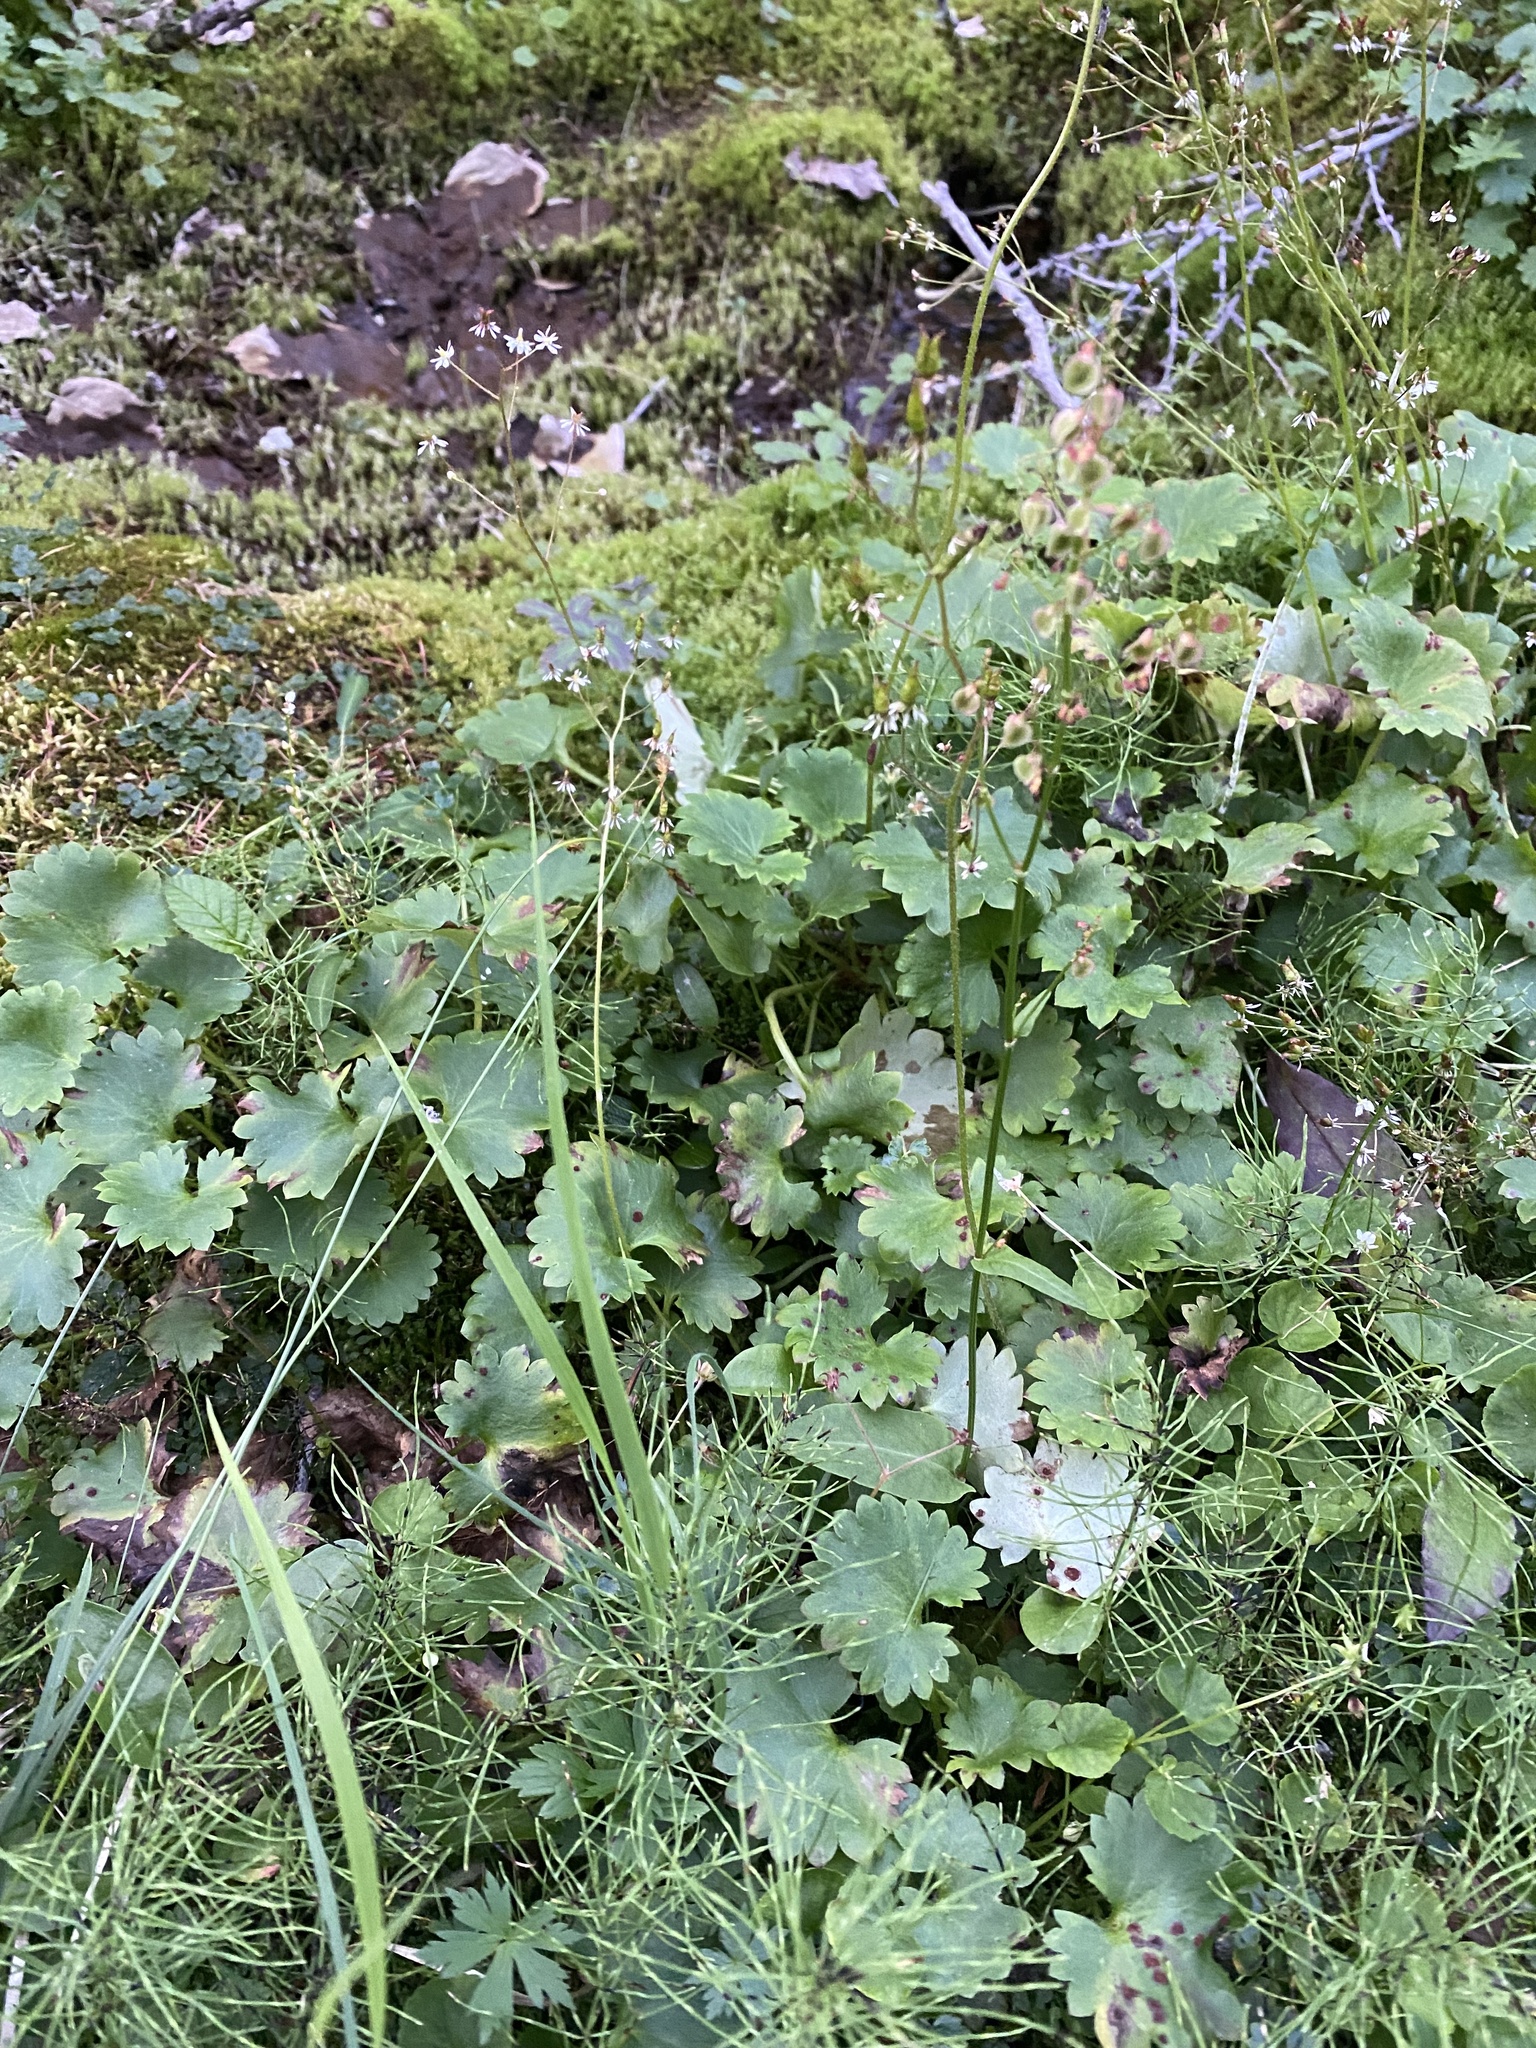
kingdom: Plantae
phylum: Tracheophyta
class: Magnoliopsida
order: Saxifragales
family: Saxifragaceae
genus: Micranthes
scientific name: Micranthes nelsoniana
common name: Nelson's saxifrage
